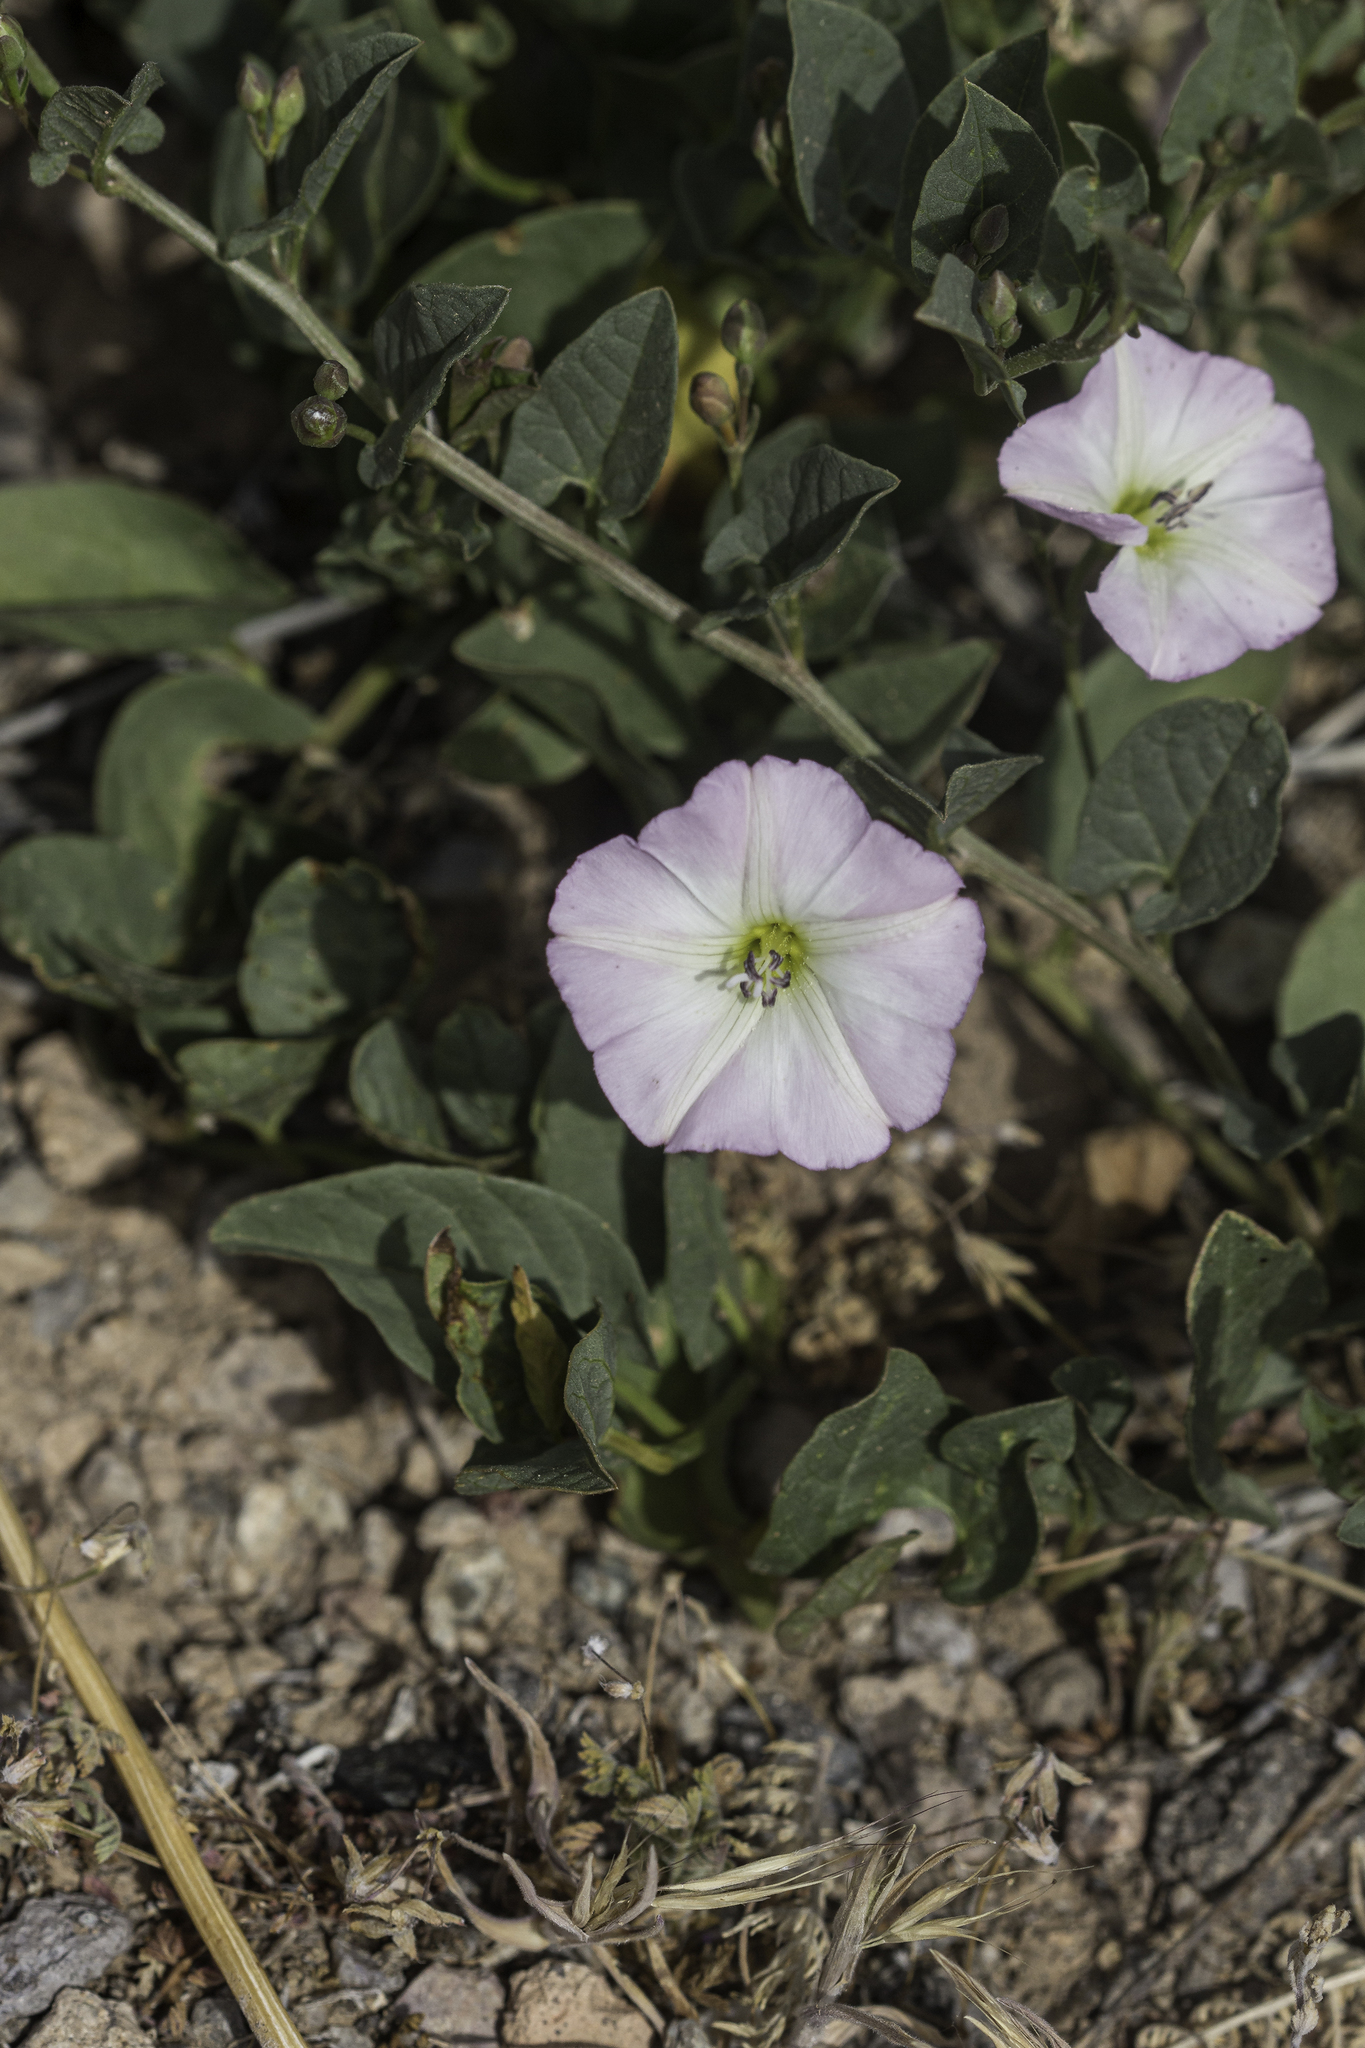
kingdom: Plantae
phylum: Tracheophyta
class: Magnoliopsida
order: Solanales
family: Convolvulaceae
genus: Convolvulus
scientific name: Convolvulus arvensis
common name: Field bindweed
